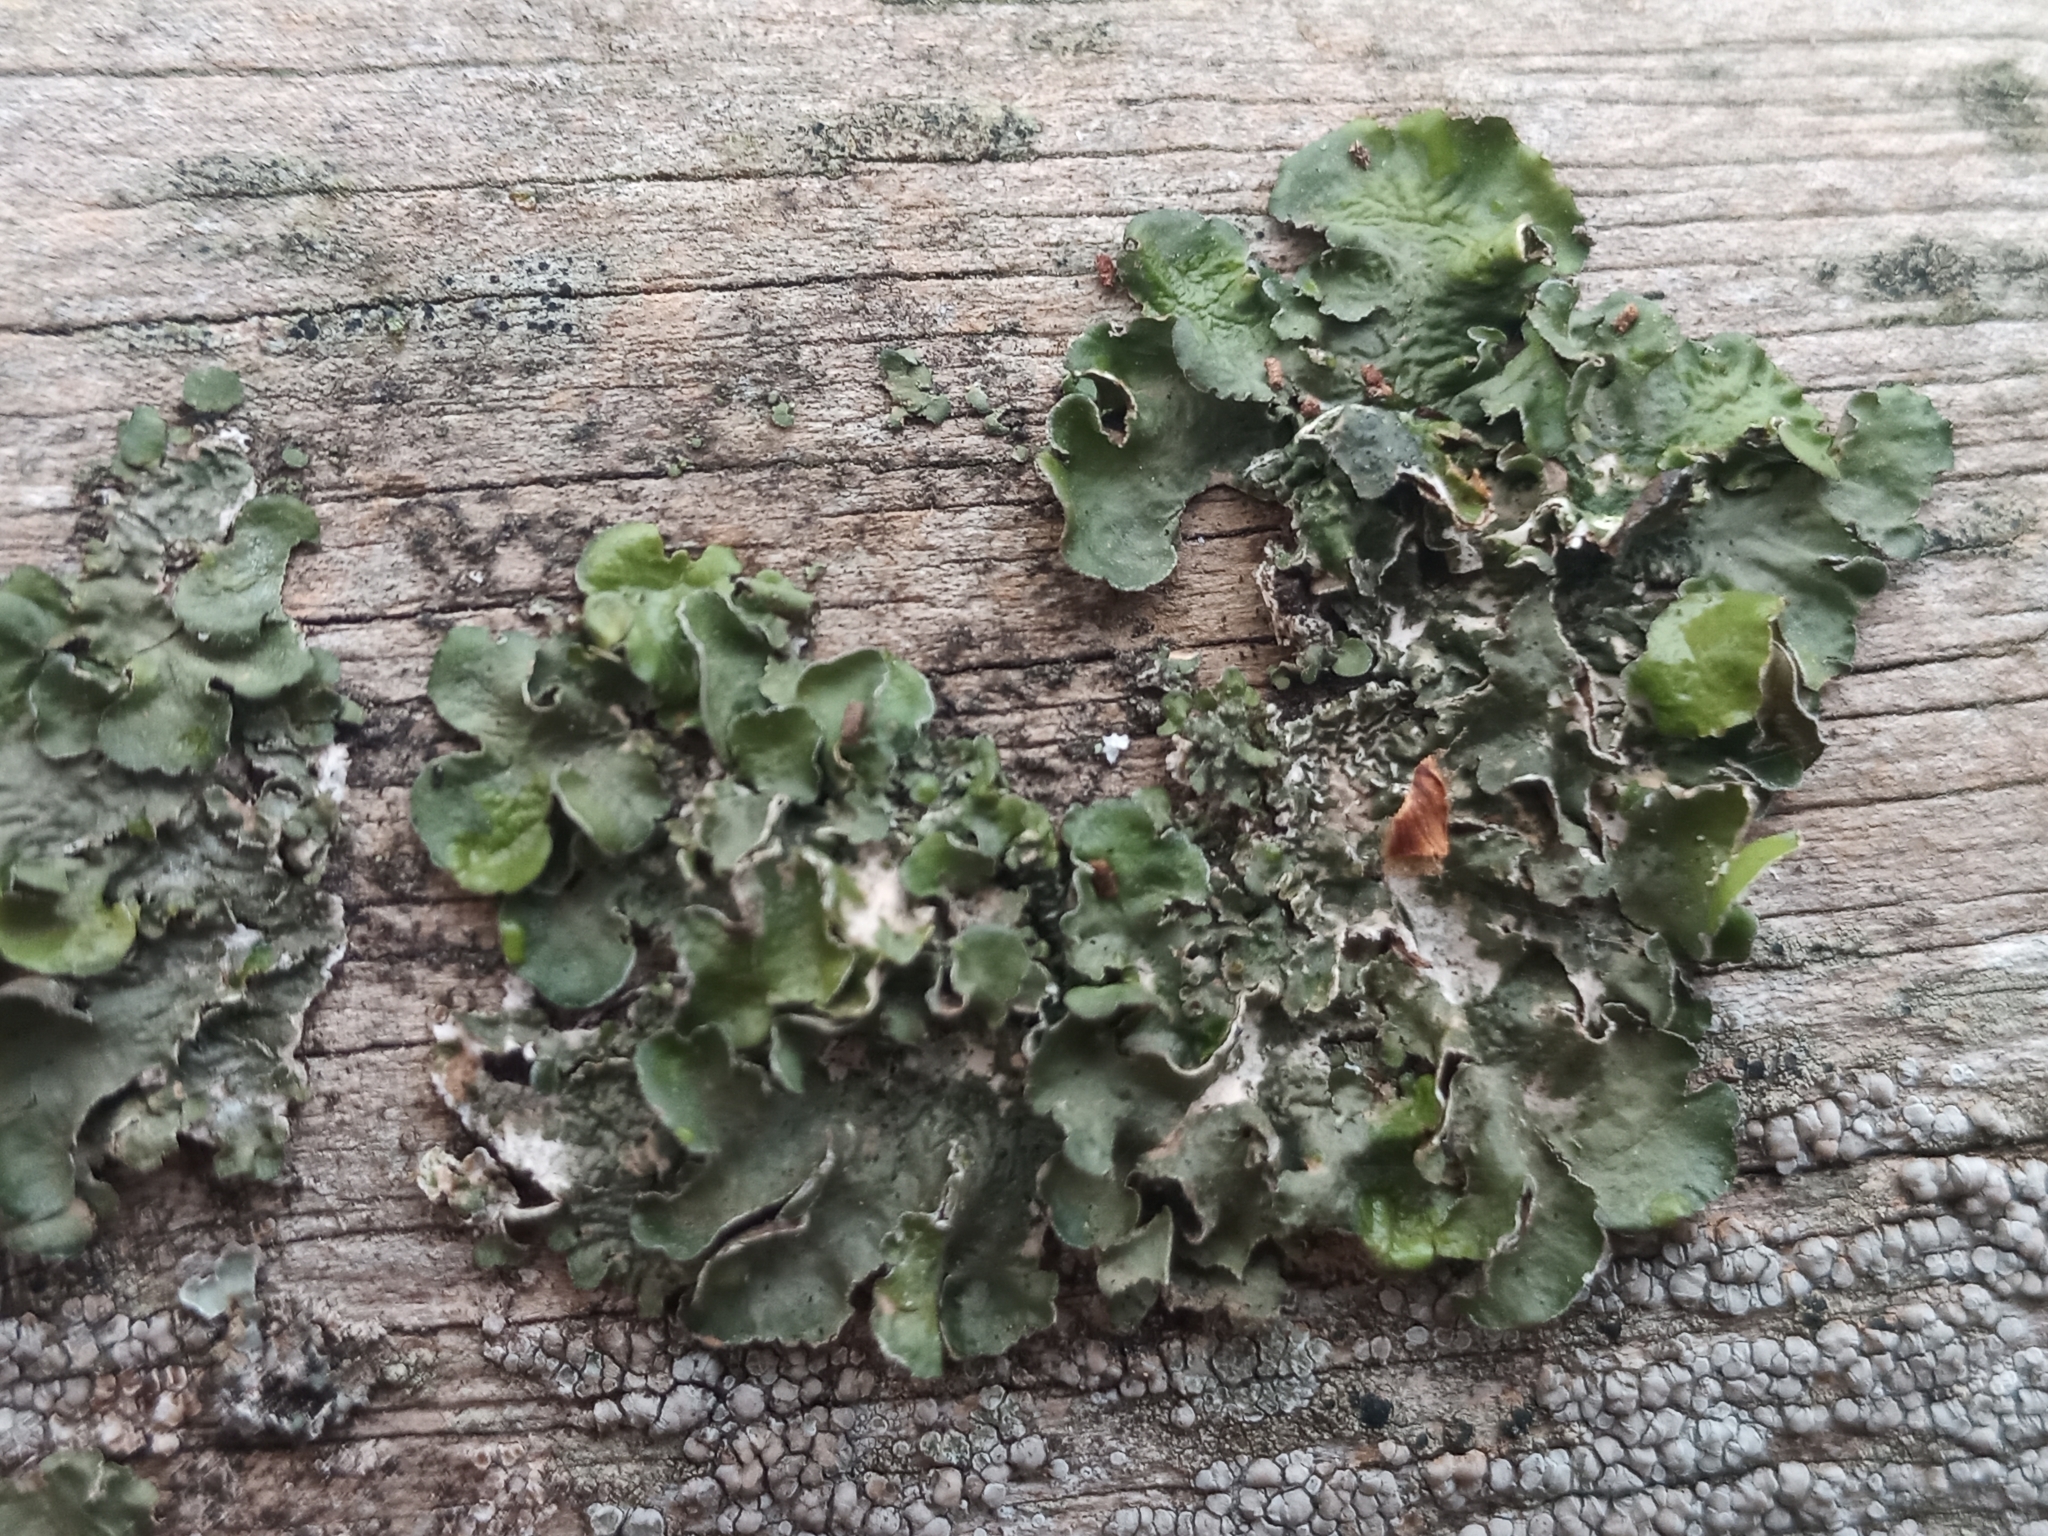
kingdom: Fungi
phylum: Ascomycota
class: Lecanoromycetes
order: Lecanorales
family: Parmeliaceae
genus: Pleurosticta
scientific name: Pleurosticta acetabulum
